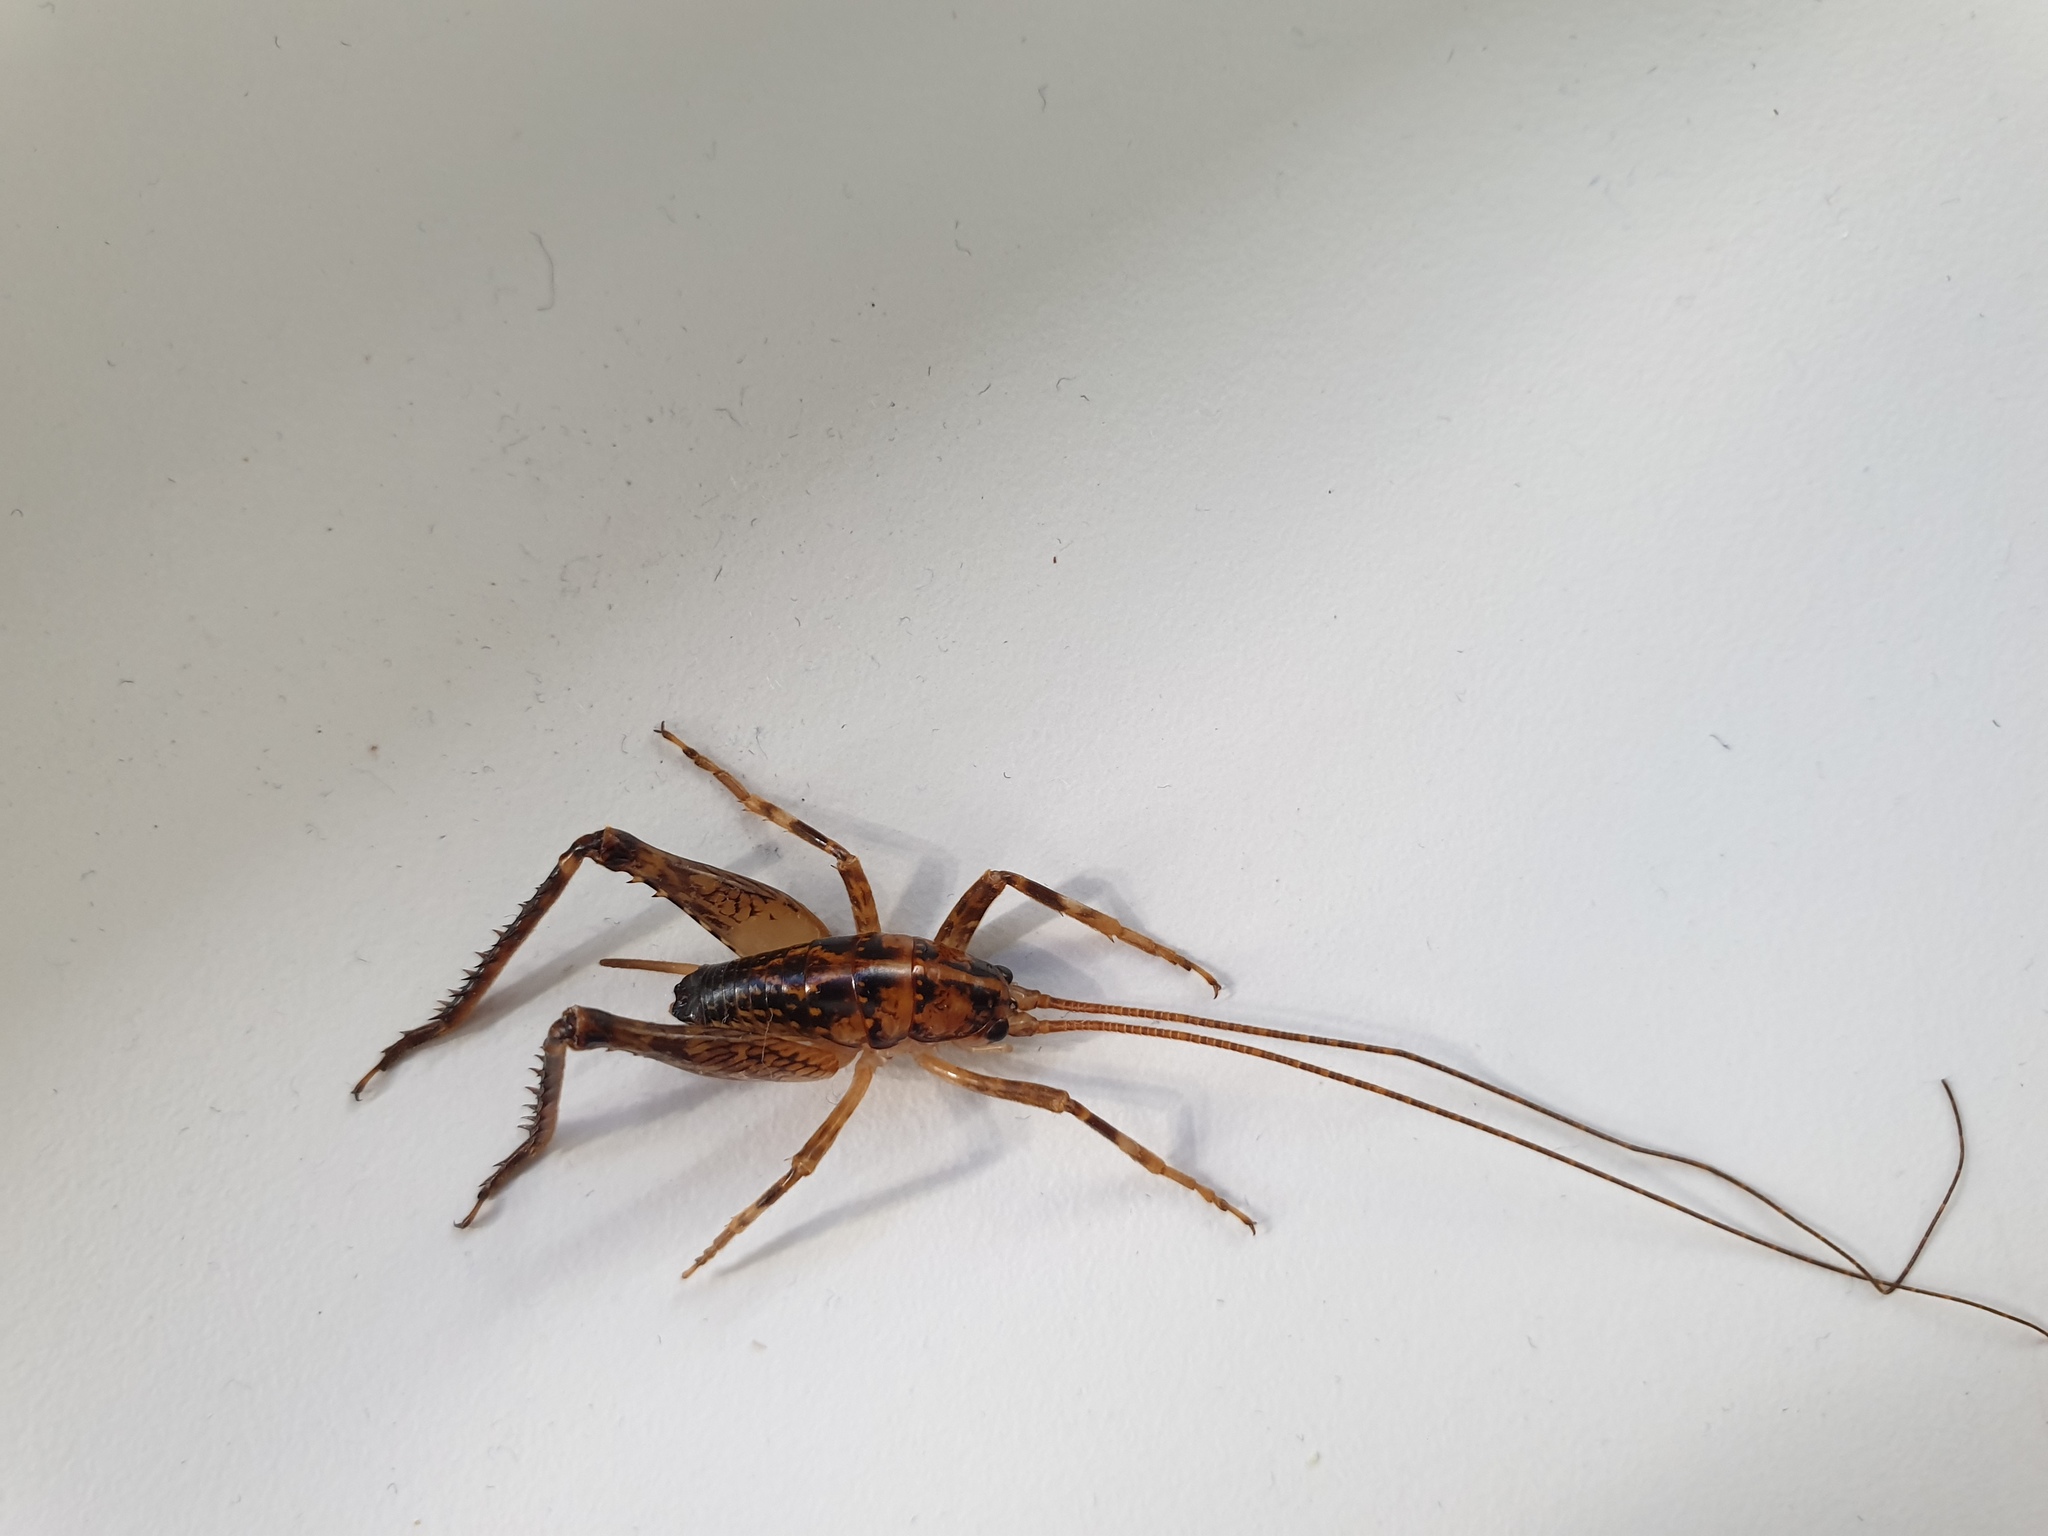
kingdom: Animalia
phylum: Arthropoda
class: Insecta
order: Orthoptera
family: Rhaphidophoridae
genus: Talitropsis
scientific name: Talitropsis sedilloti
